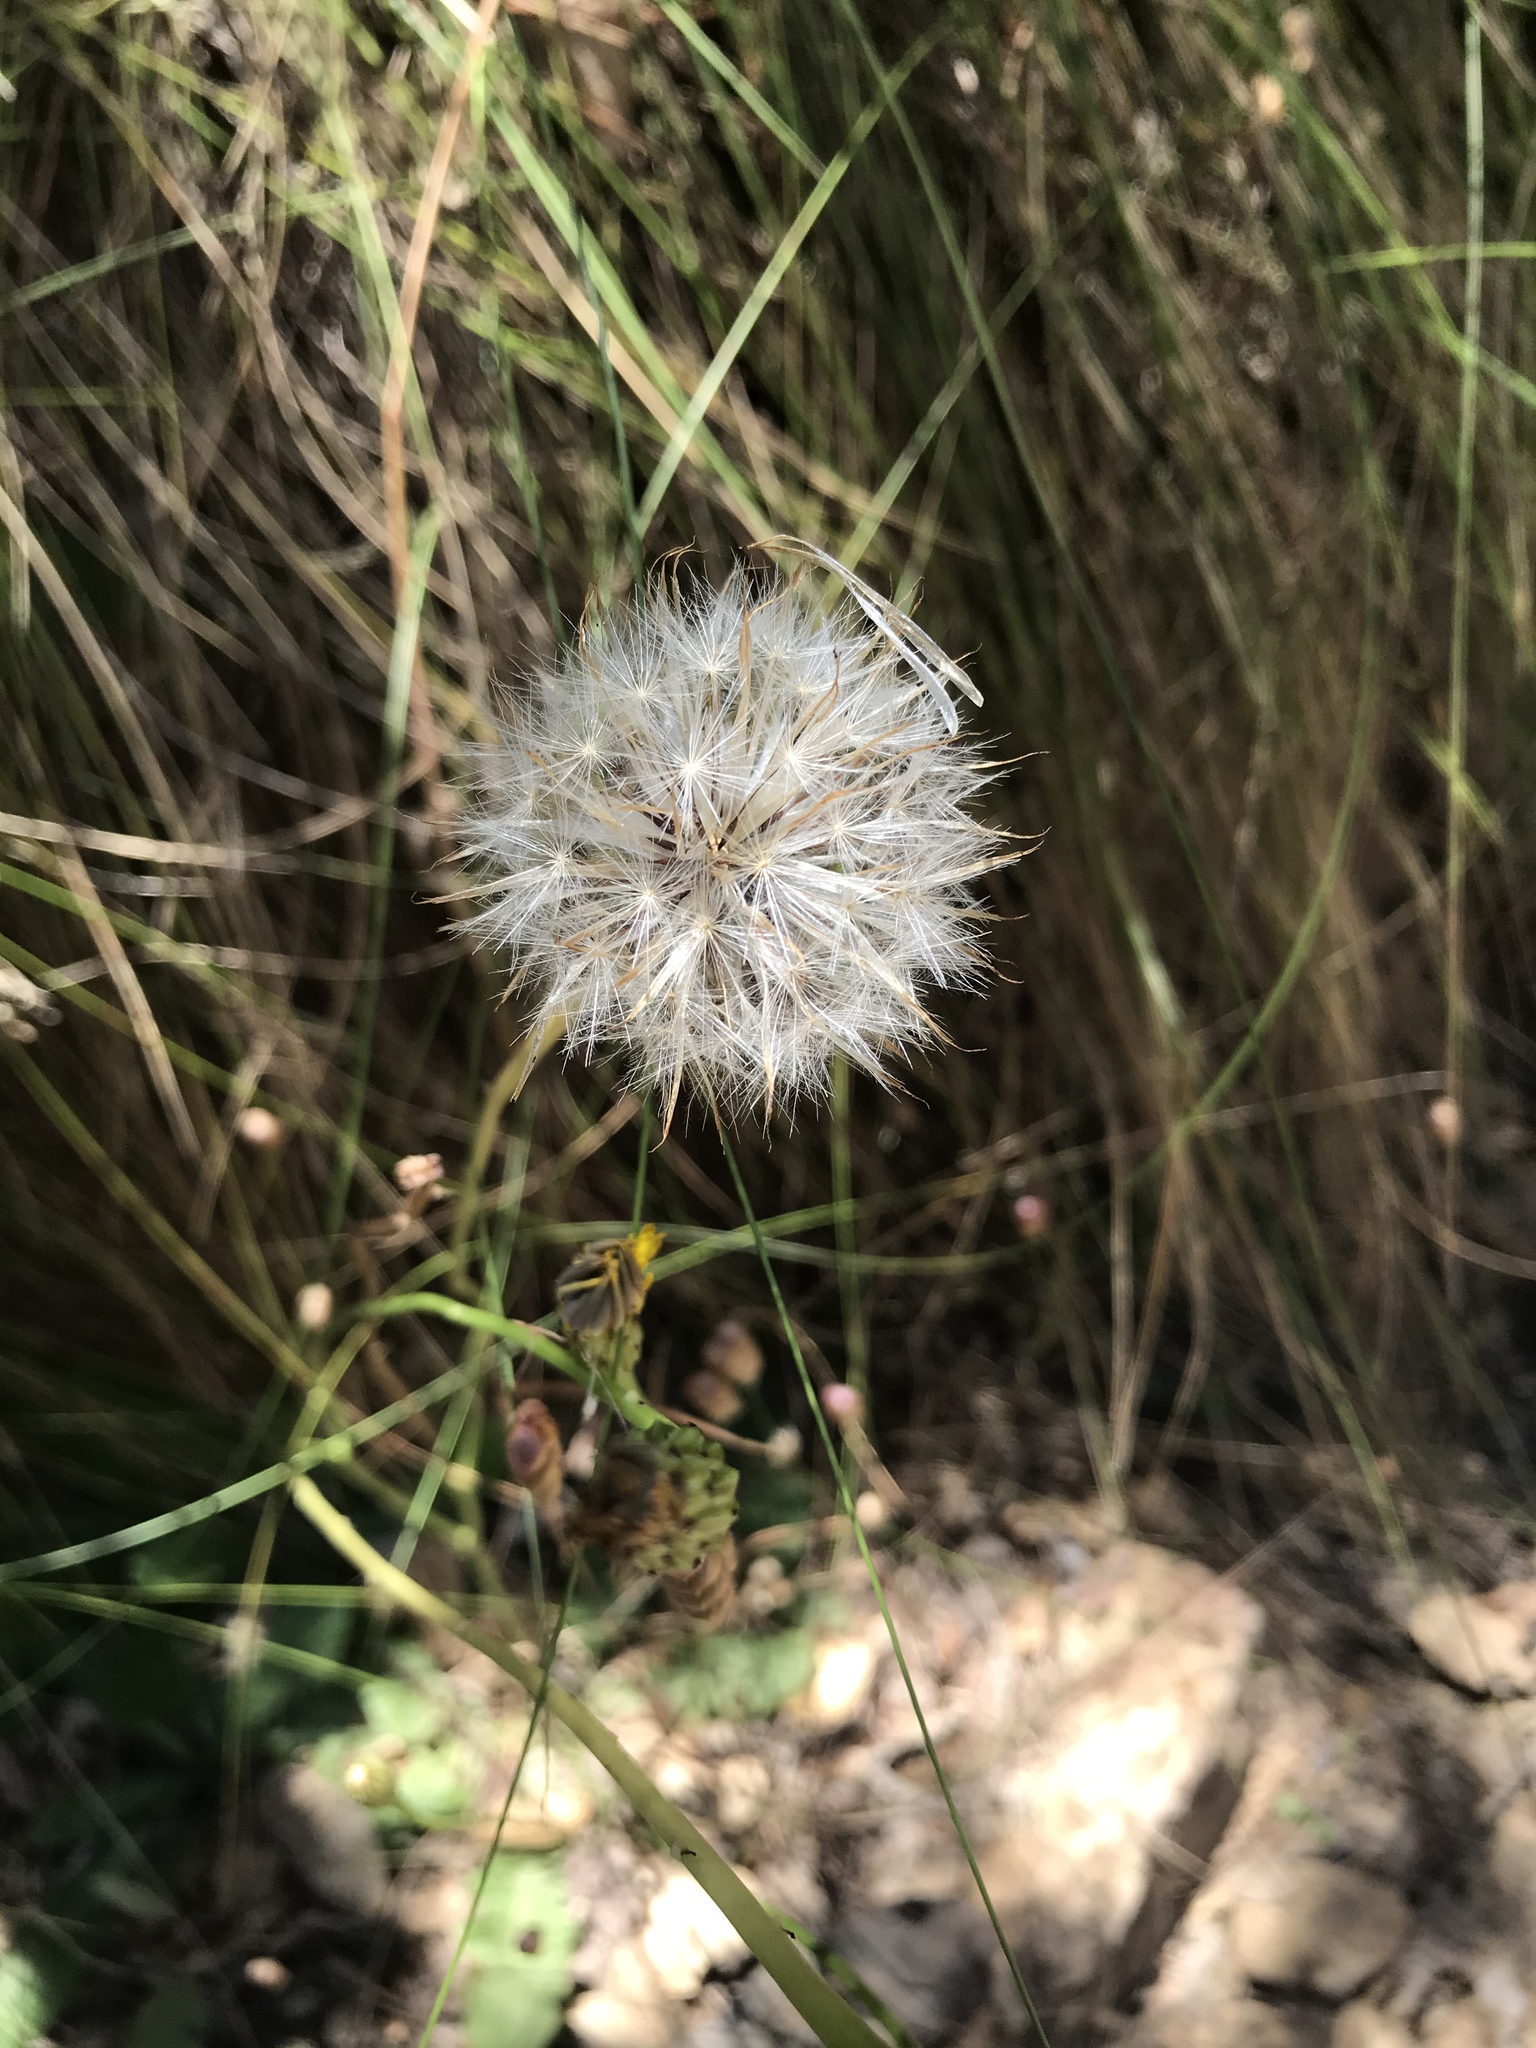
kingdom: Plantae
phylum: Tracheophyta
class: Magnoliopsida
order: Asterales
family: Asteraceae
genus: Hypochaeris
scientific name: Hypochaeris radicata
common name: Flatweed
